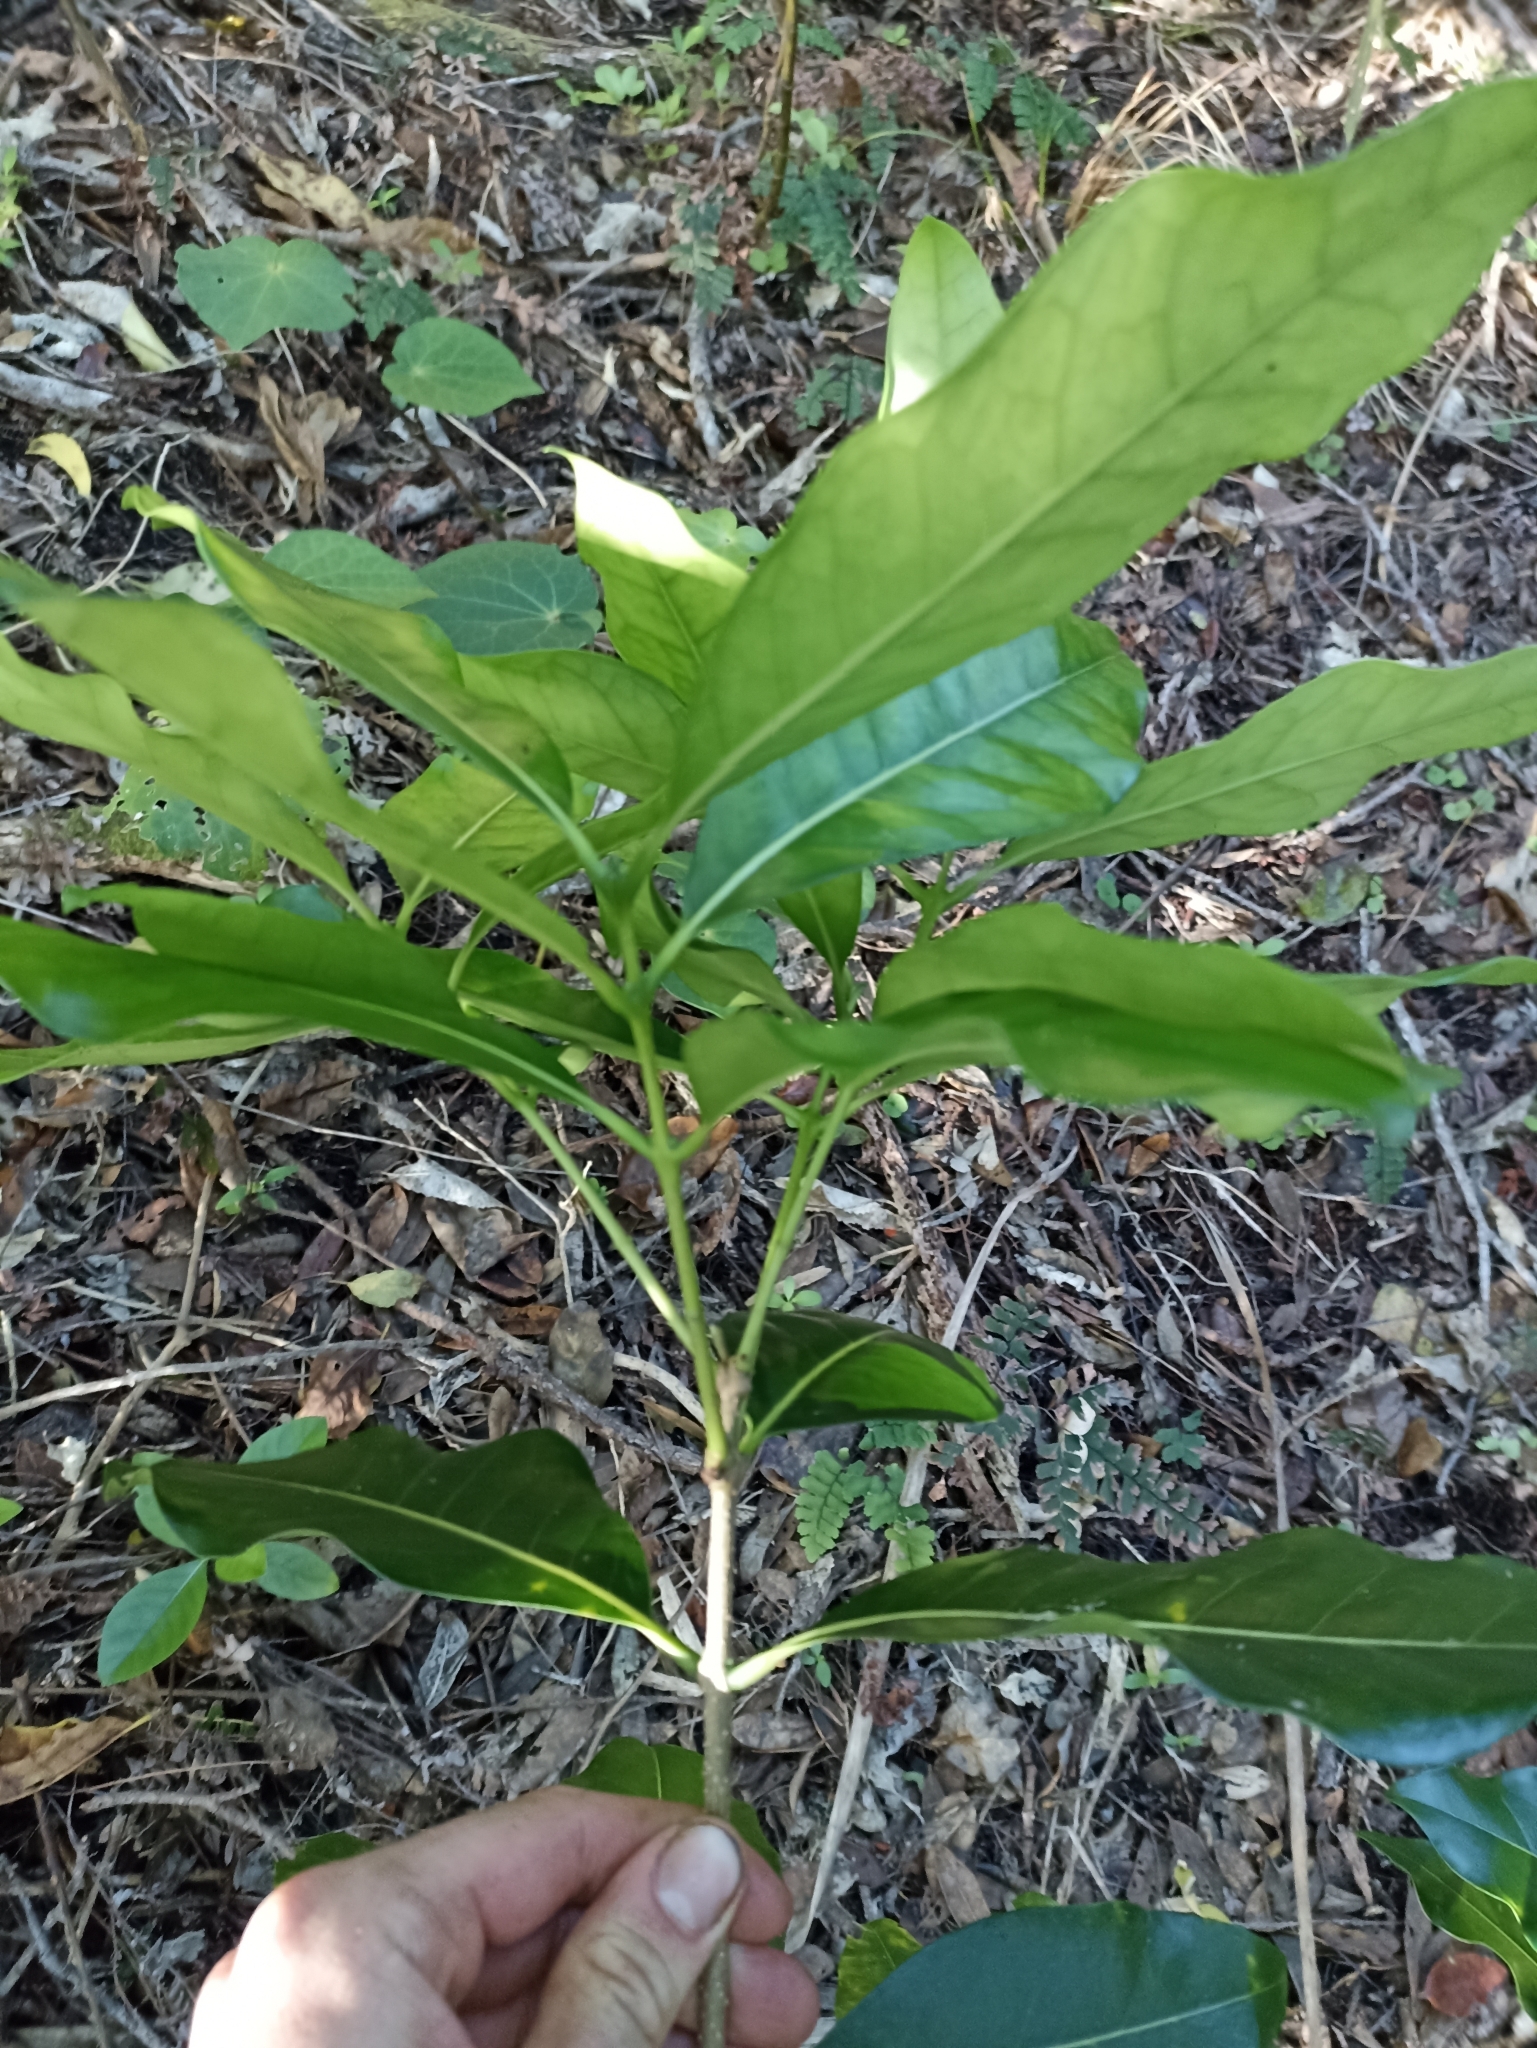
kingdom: Plantae
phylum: Tracheophyta
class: Magnoliopsida
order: Lamiales
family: Oleaceae
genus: Nestegis
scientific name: Nestegis apetala
